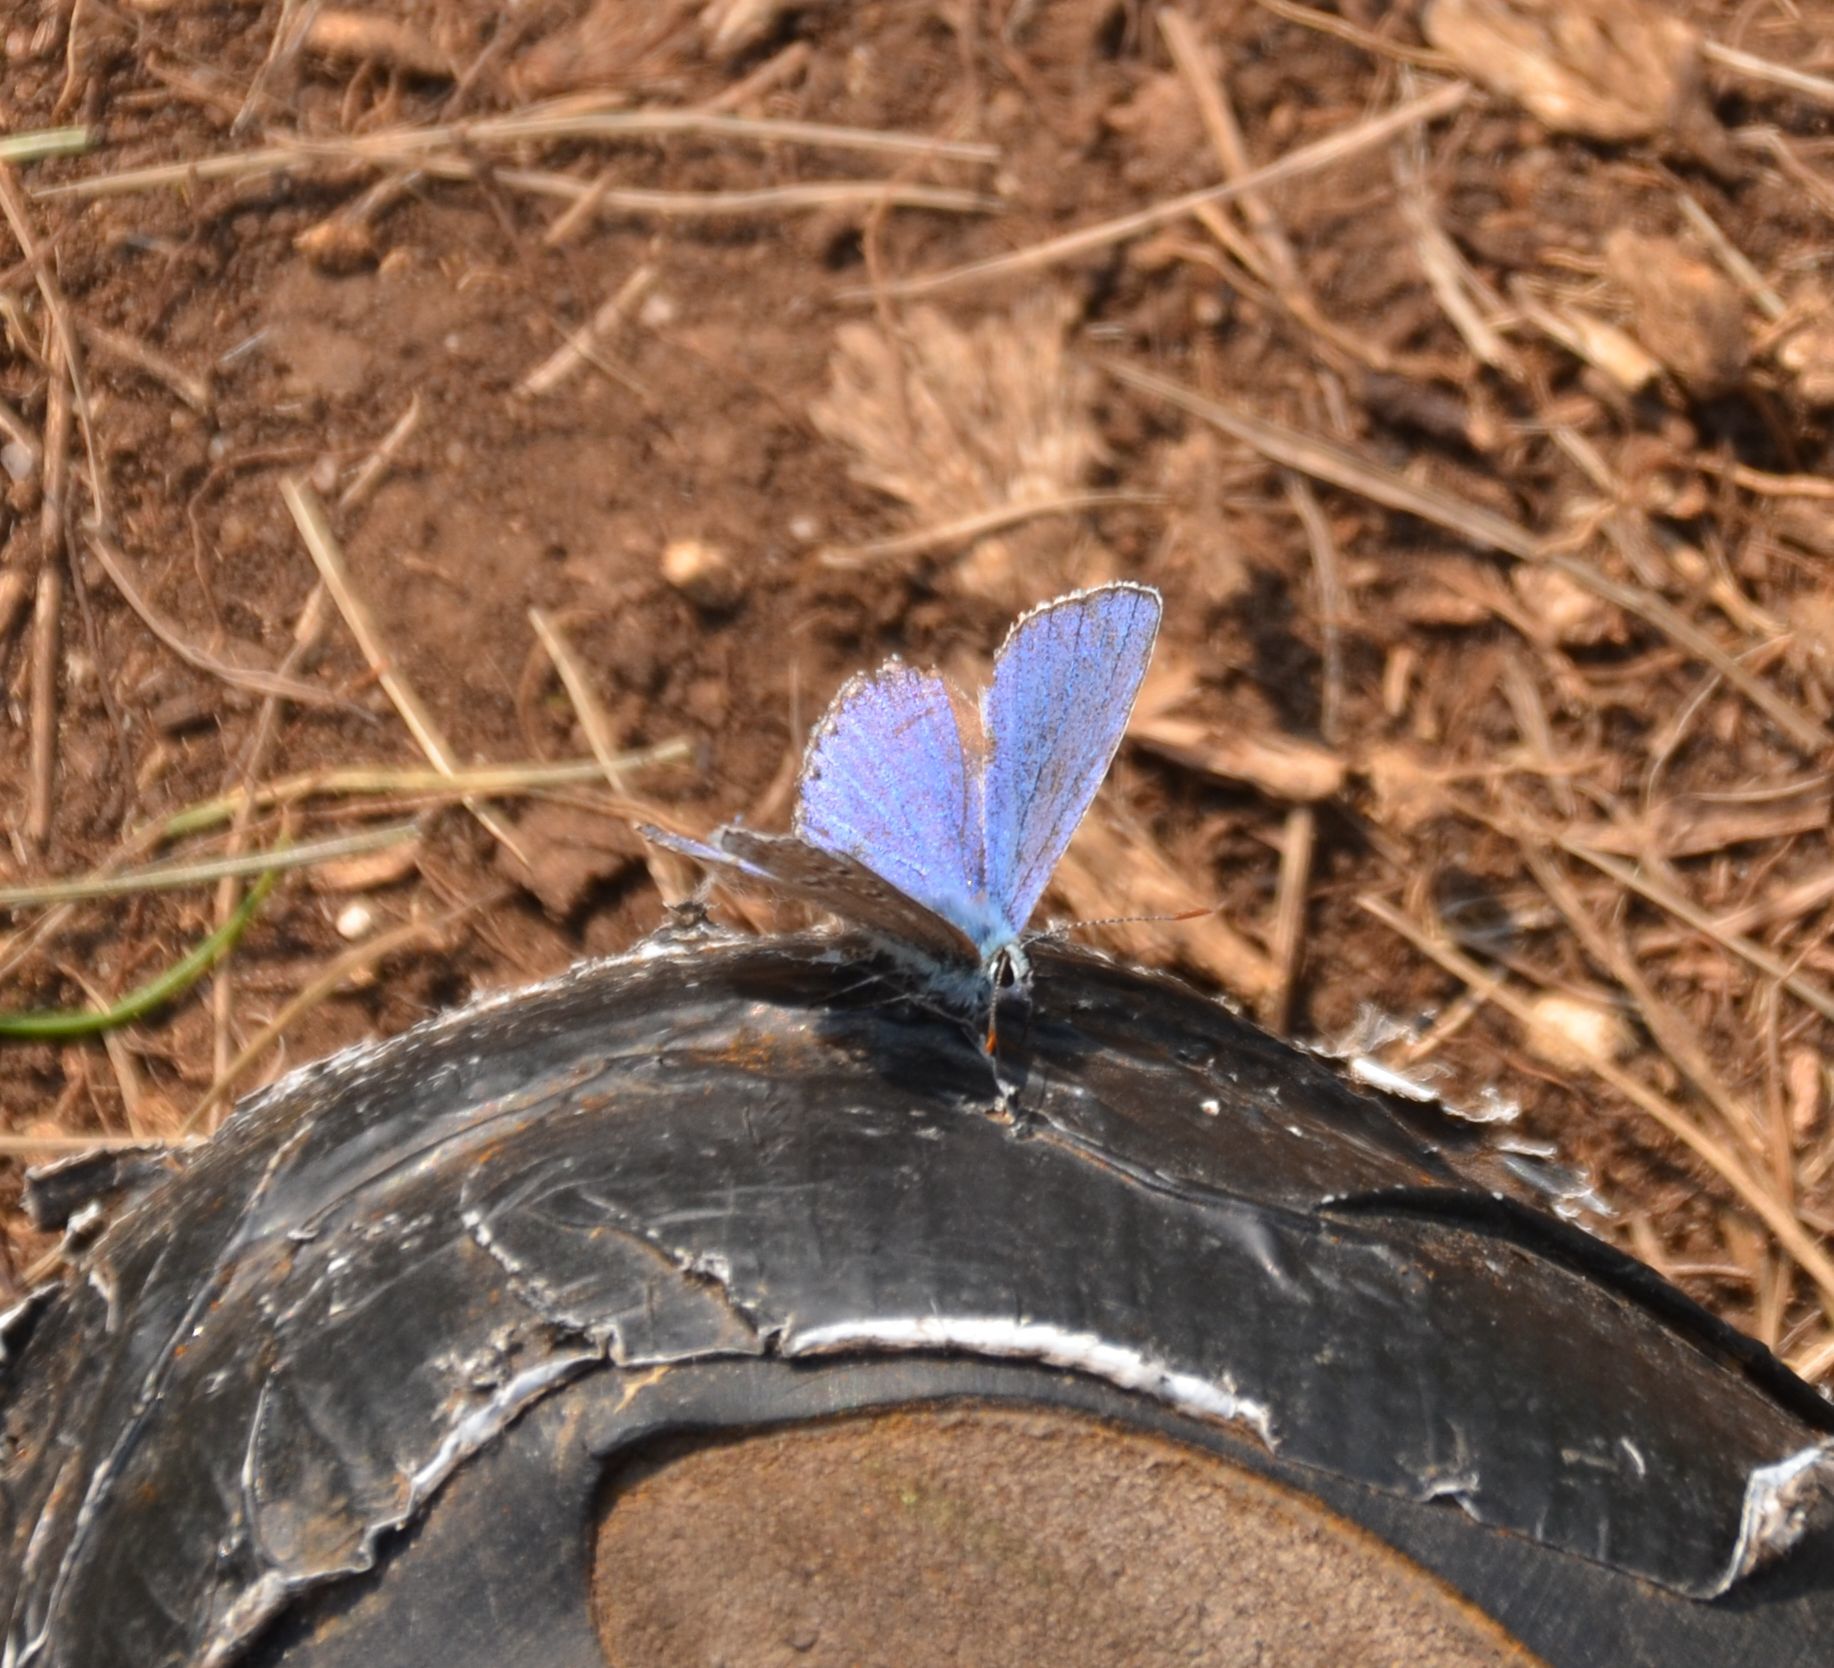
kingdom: Animalia
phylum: Arthropoda
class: Insecta
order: Lepidoptera
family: Lycaenidae
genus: Lysandra
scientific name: Lysandra bellargus
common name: Adonis blue
